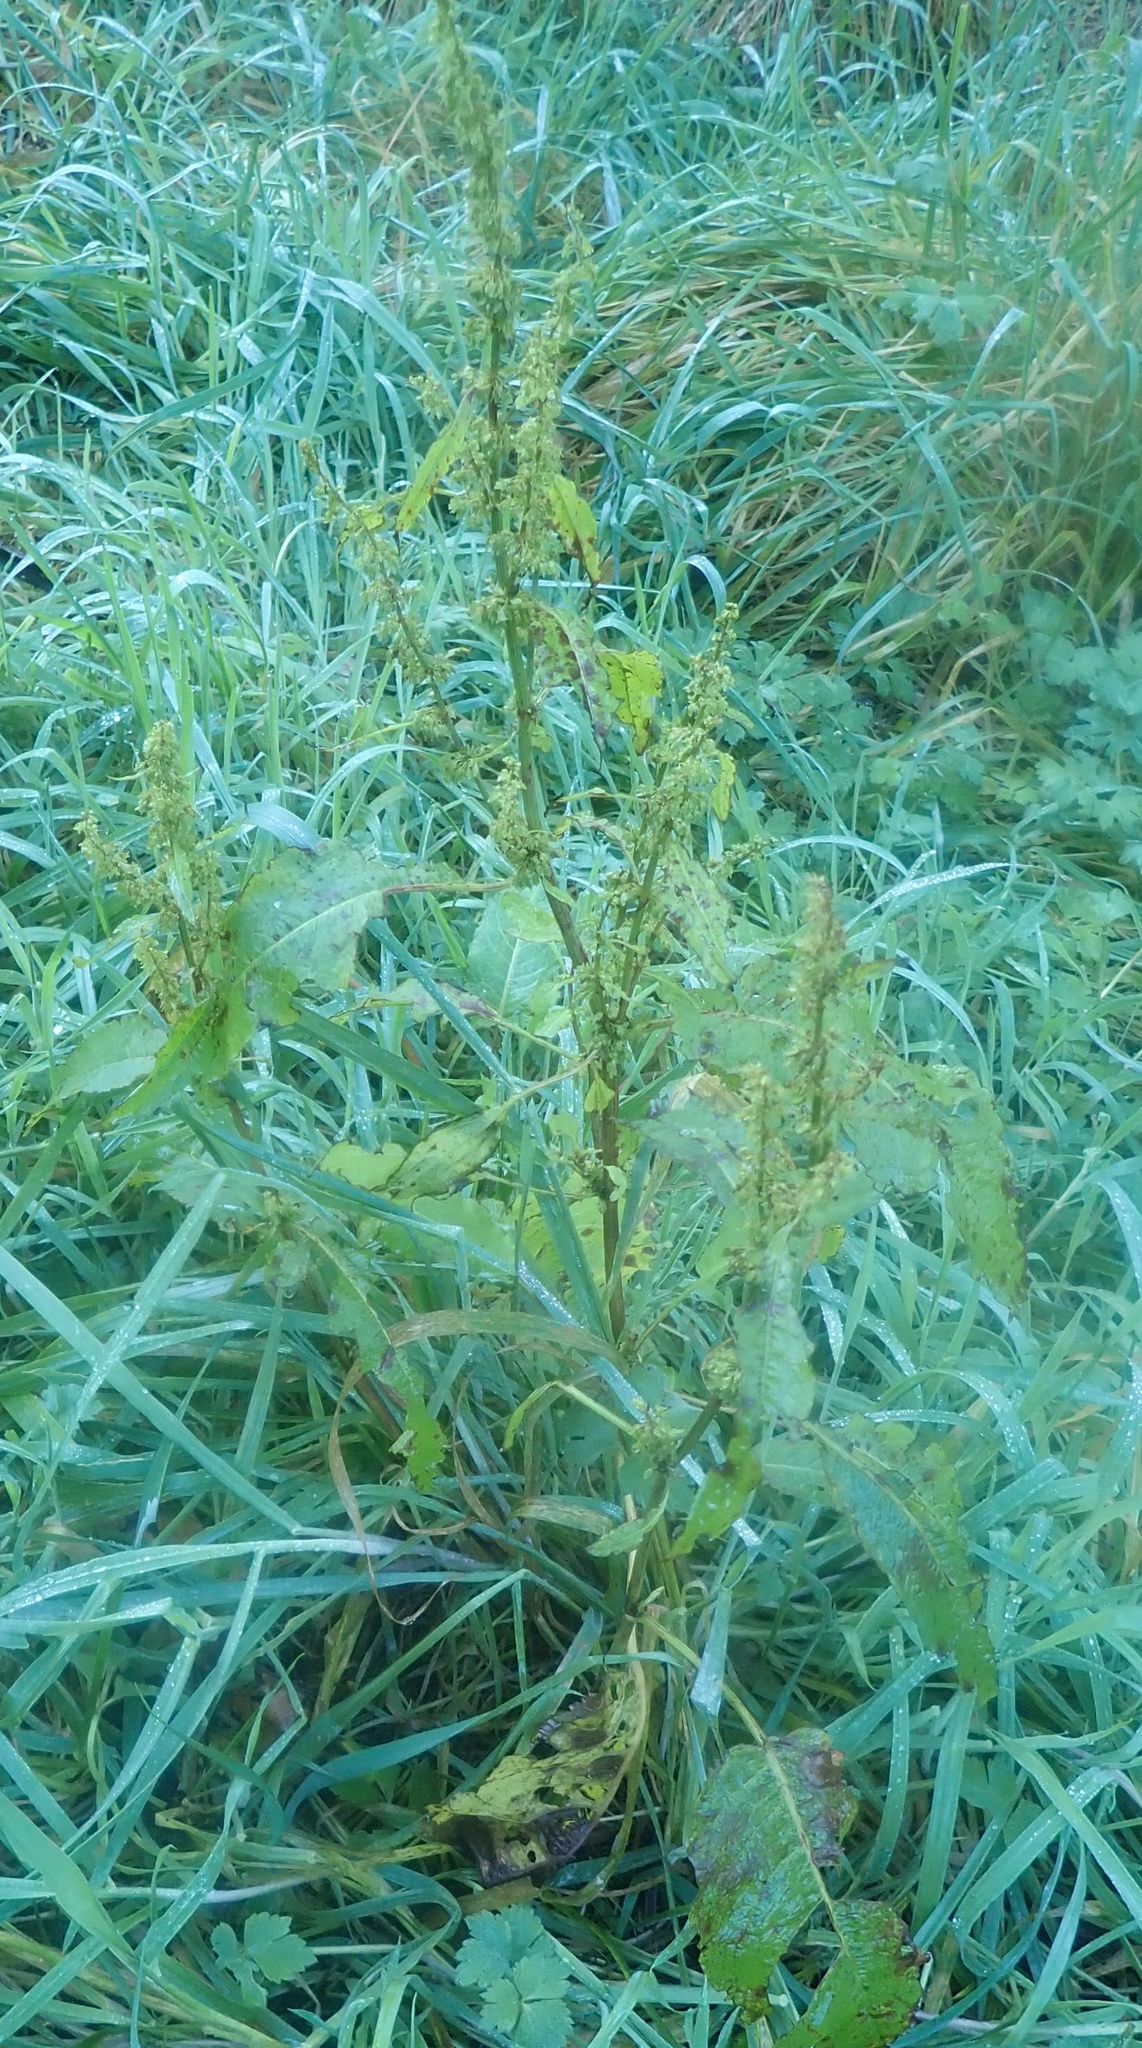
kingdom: Plantae
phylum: Tracheophyta
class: Magnoliopsida
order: Caryophyllales
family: Polygonaceae
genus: Rumex
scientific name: Rumex obtusifolius
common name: Bitter dock
